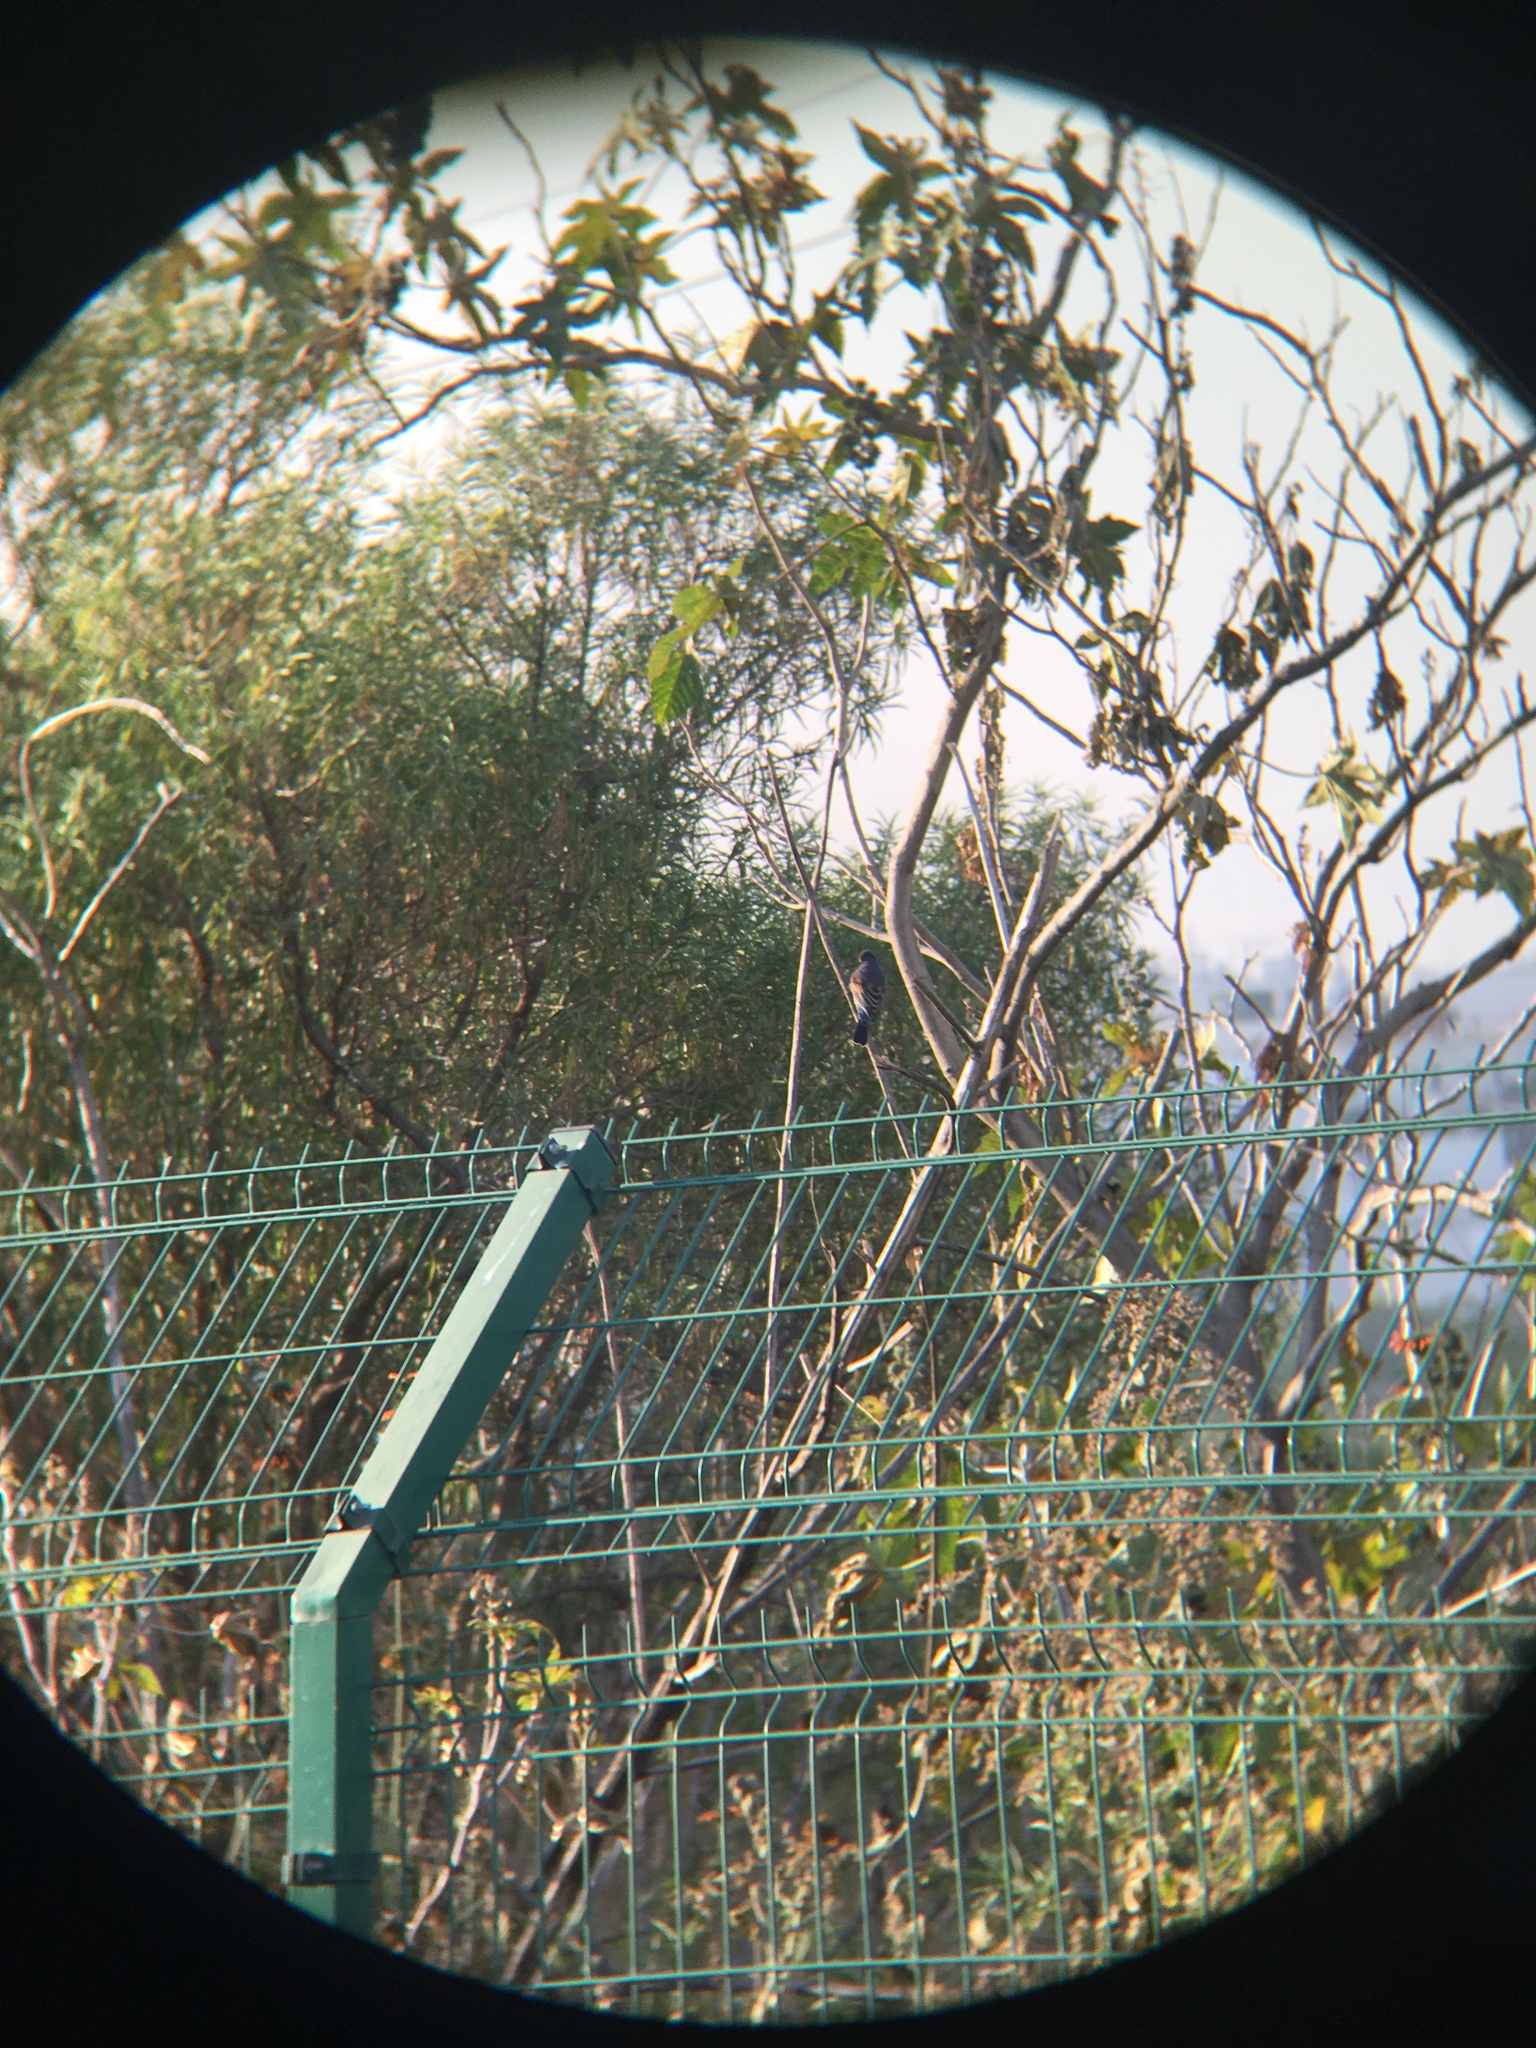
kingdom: Animalia
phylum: Chordata
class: Aves
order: Passeriformes
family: Cardinalidae
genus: Passerina
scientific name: Passerina caerulea
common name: Blue grosbeak
